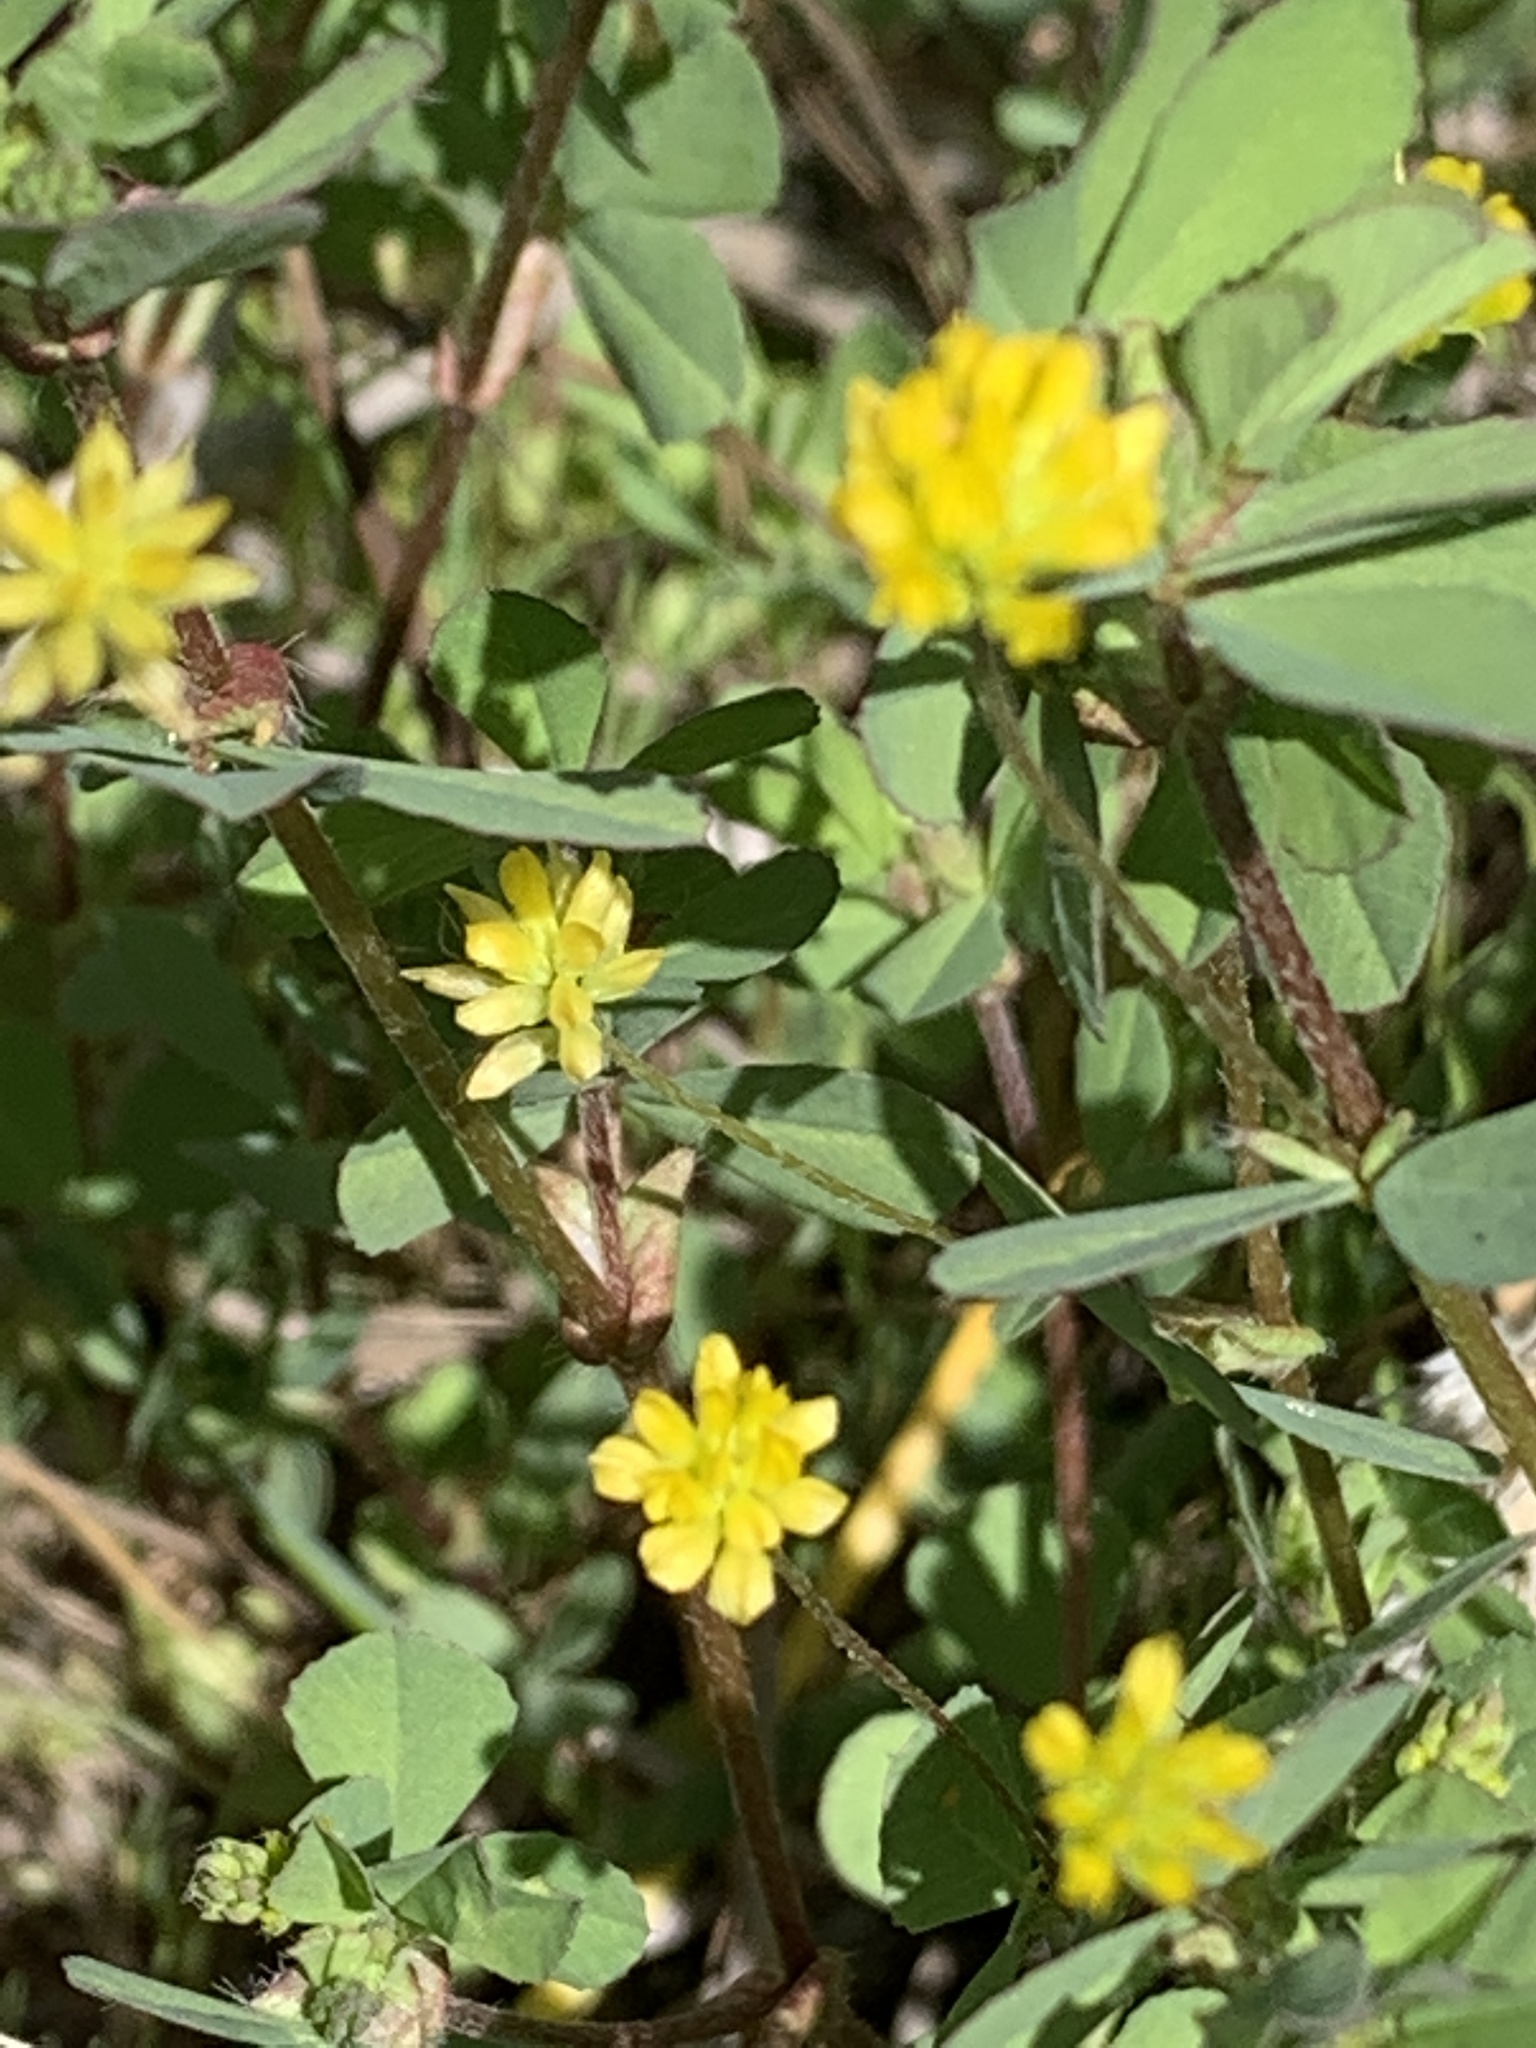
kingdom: Plantae
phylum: Tracheophyta
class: Magnoliopsida
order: Fabales
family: Fabaceae
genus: Trifolium
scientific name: Trifolium dubium
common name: Suckling clover
